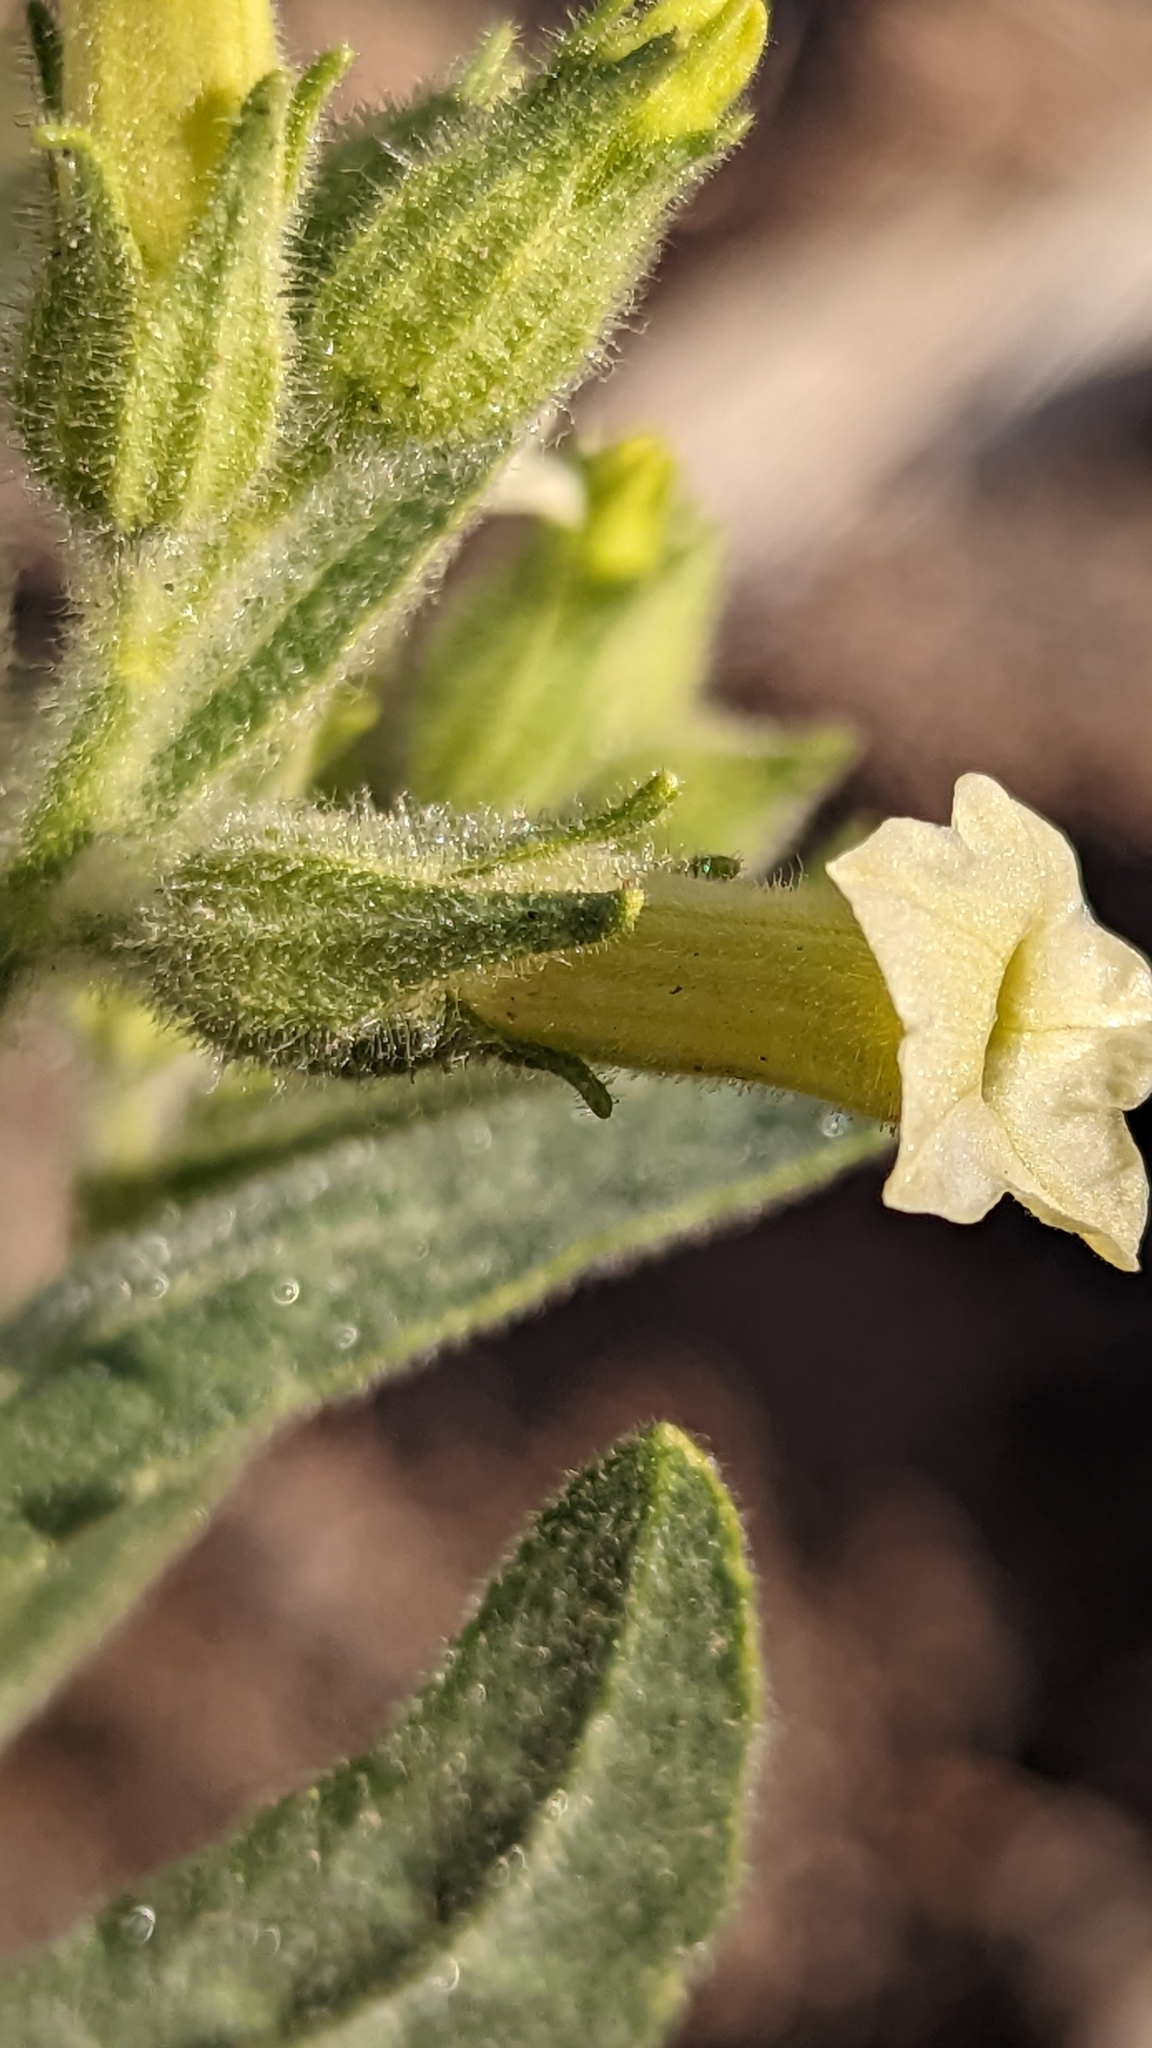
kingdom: Plantae
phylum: Tracheophyta
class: Magnoliopsida
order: Solanales
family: Solanaceae
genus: Nicotiana
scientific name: Nicotiana obtusifolia
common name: Desert tobacco
